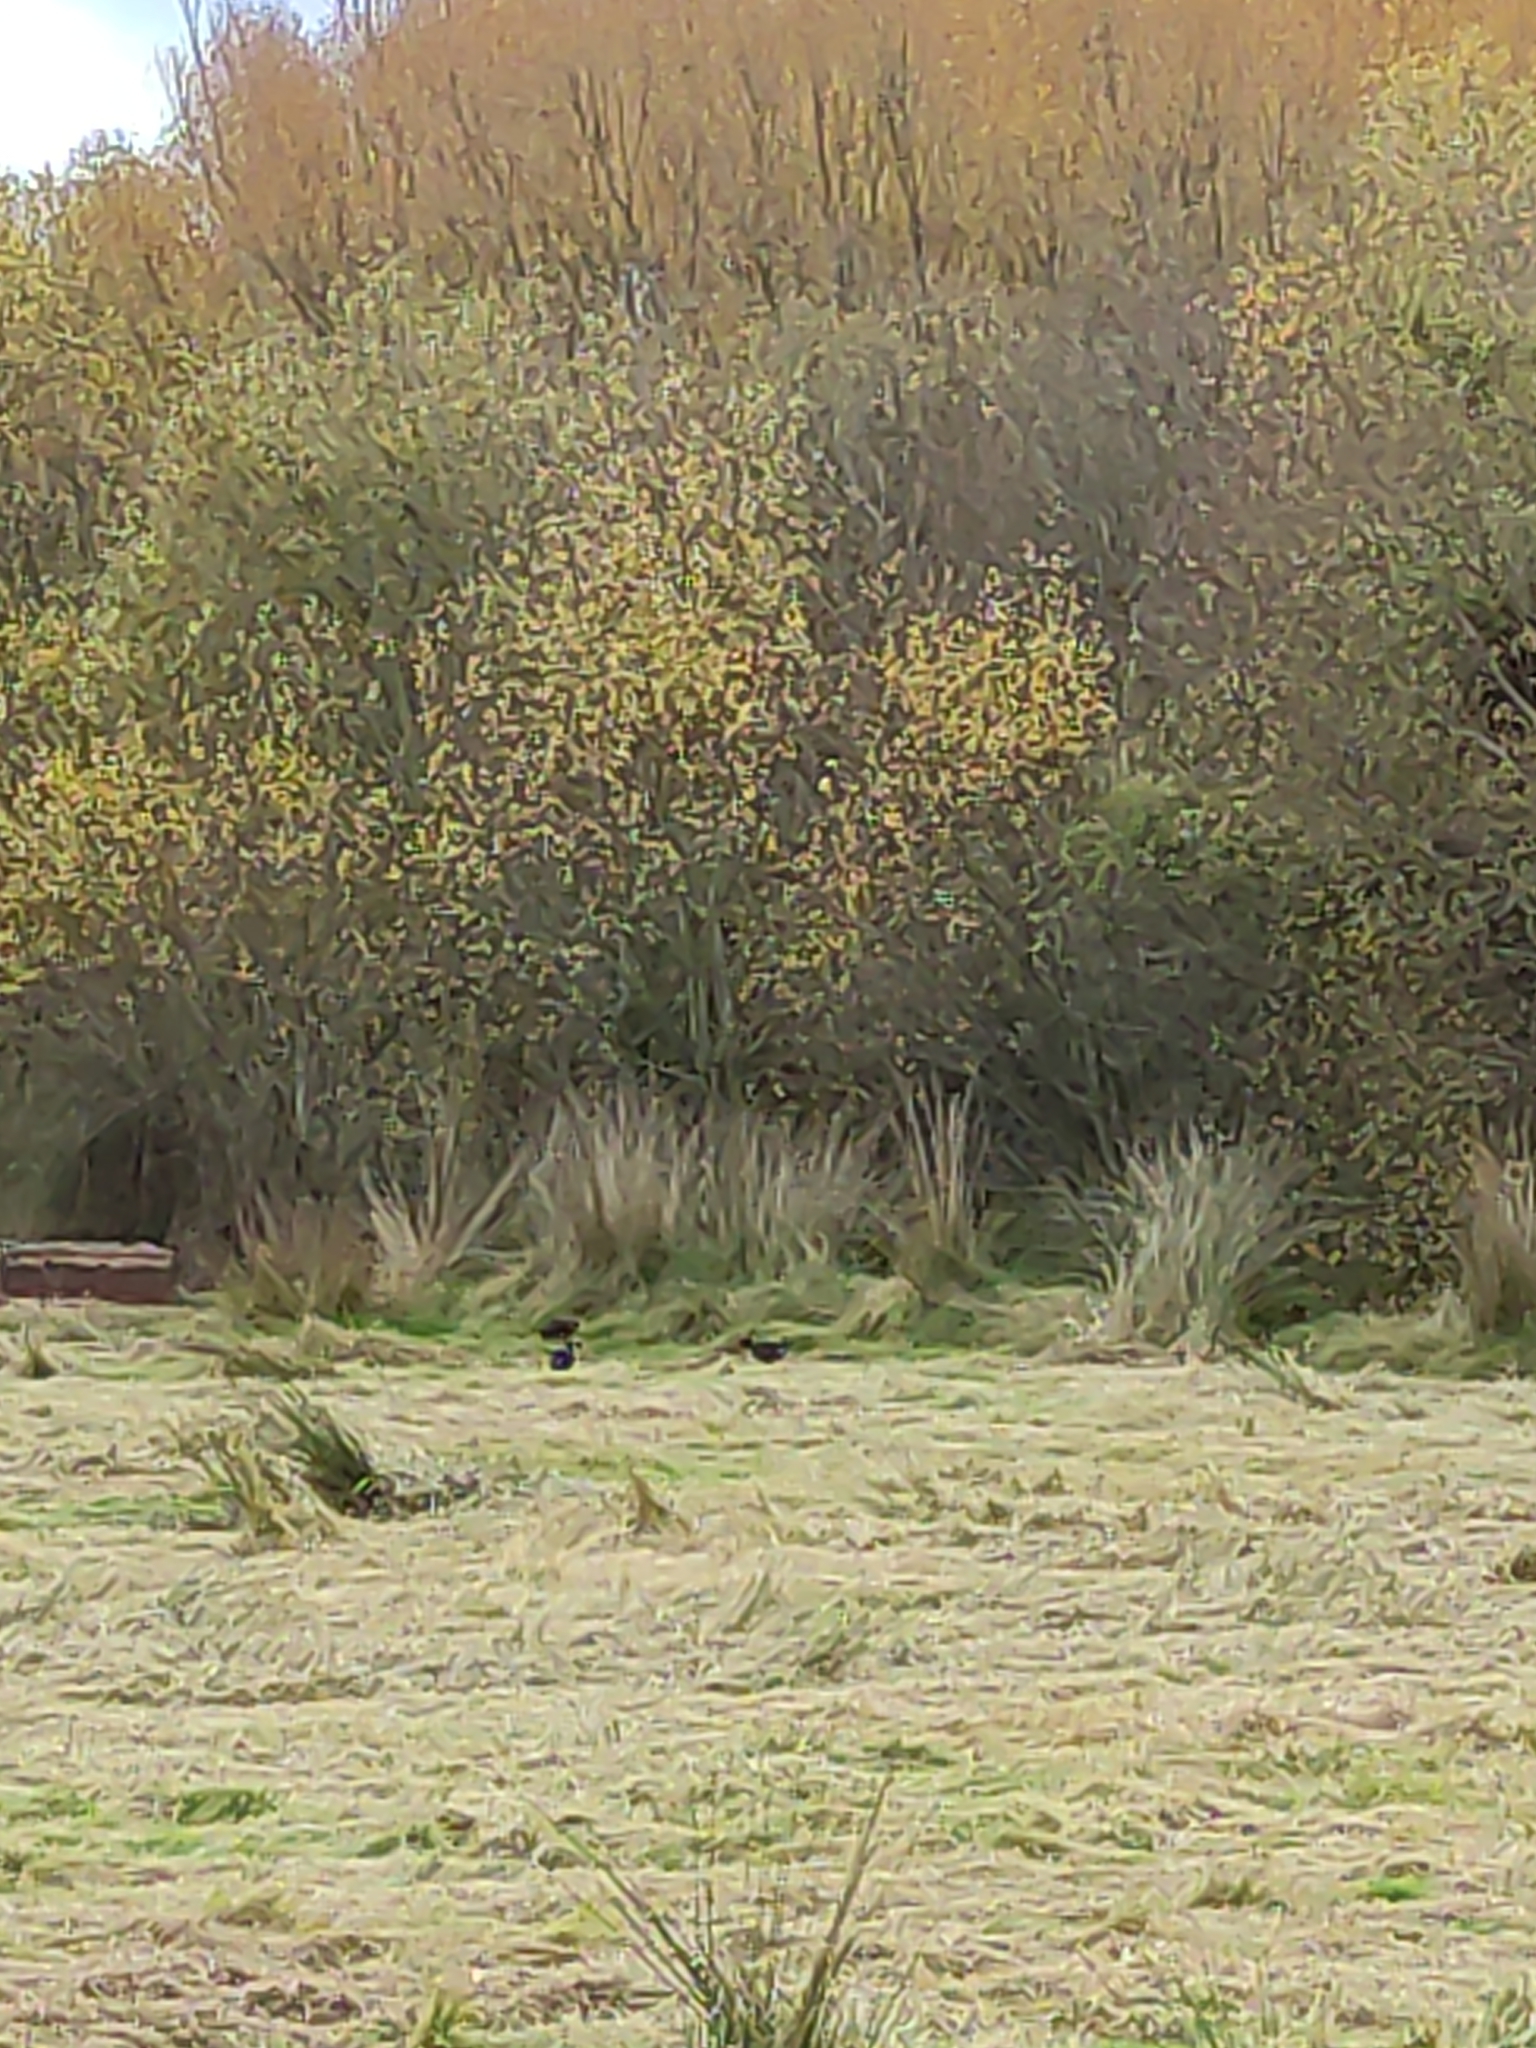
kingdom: Animalia
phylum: Chordata
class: Aves
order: Gruiformes
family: Rallidae
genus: Porphyrio
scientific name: Porphyrio melanotus
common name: Australasian swamphen
